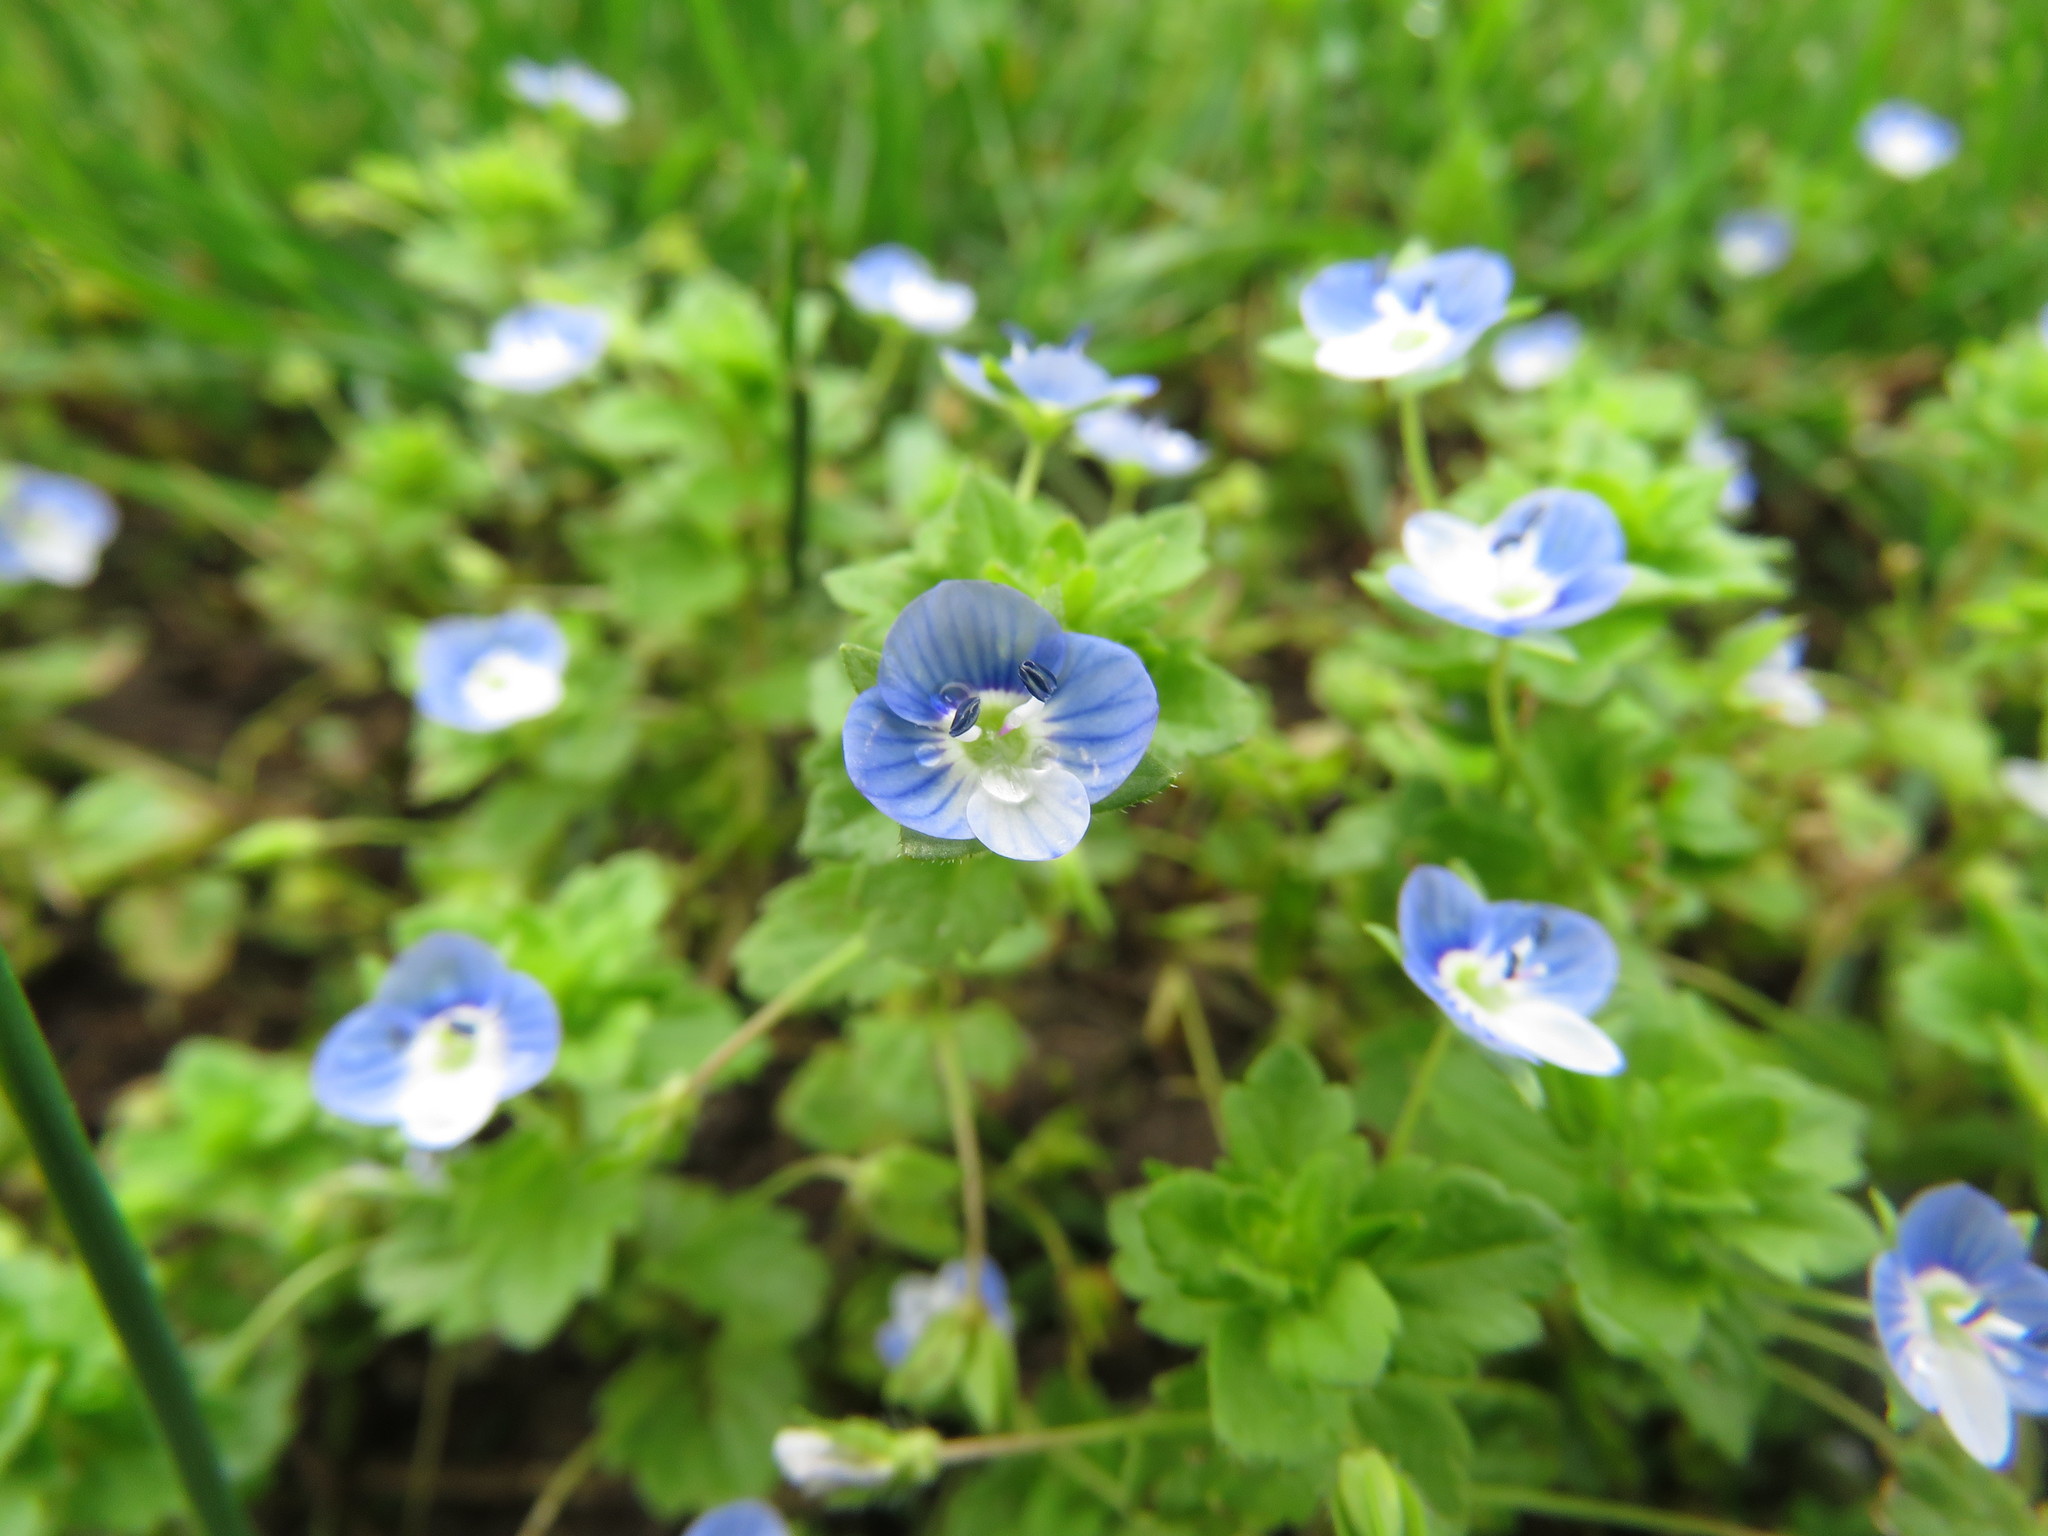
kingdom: Plantae
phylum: Tracheophyta
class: Magnoliopsida
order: Lamiales
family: Plantaginaceae
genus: Veronica
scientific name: Veronica persica
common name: Common field-speedwell
